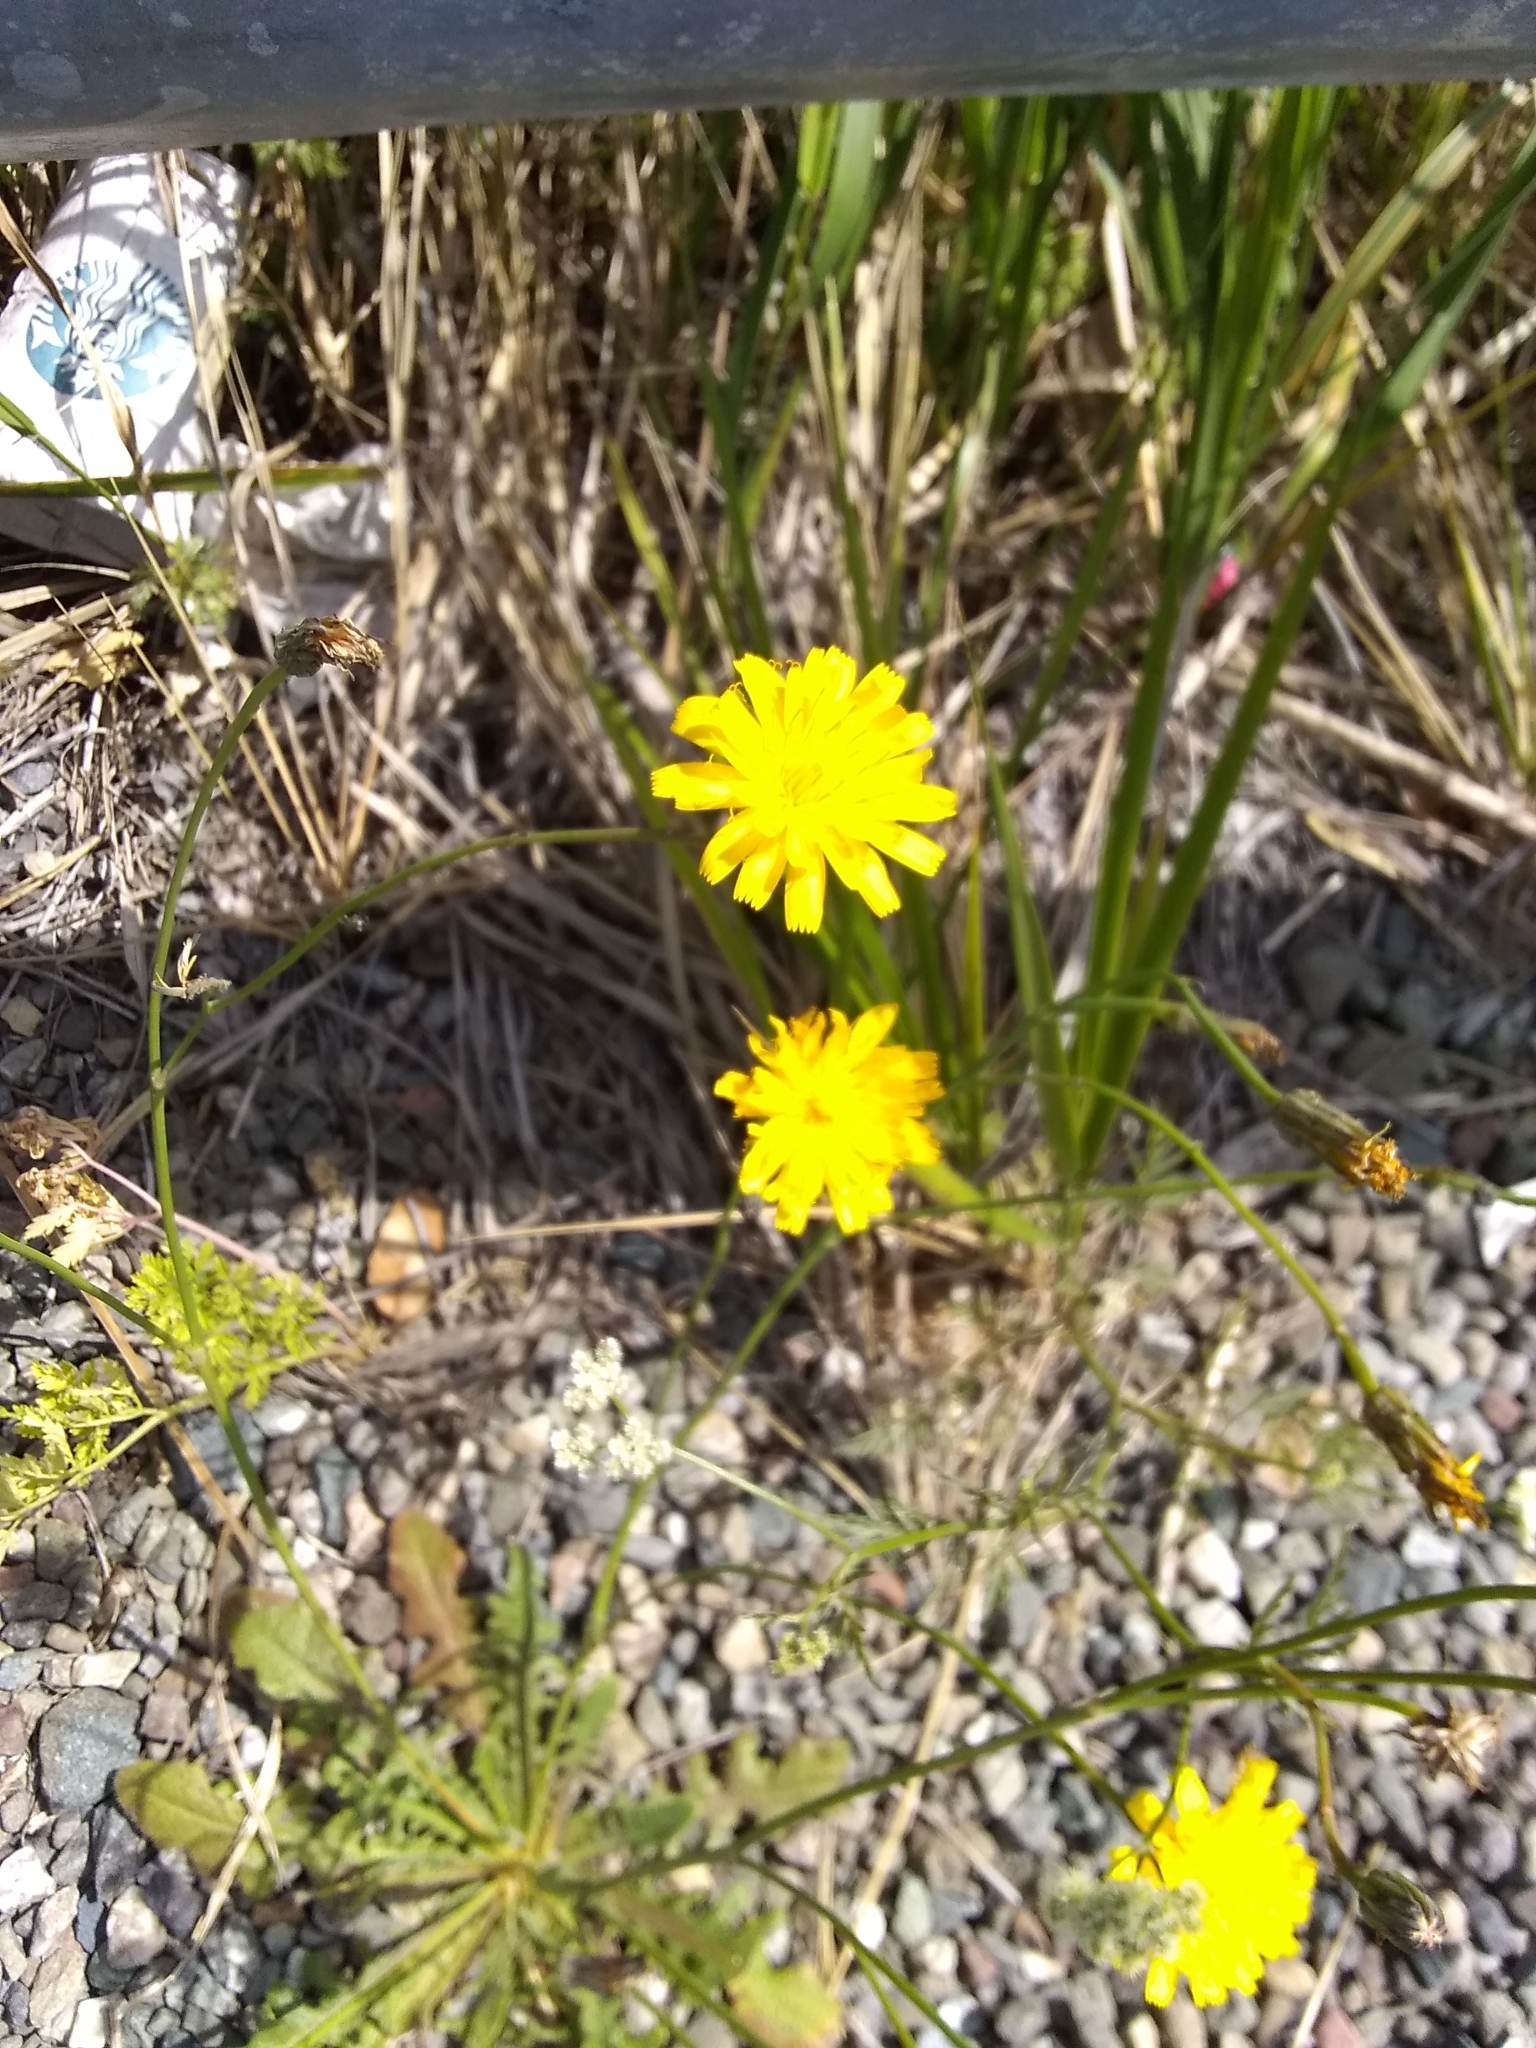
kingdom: Plantae
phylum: Tracheophyta
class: Magnoliopsida
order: Asterales
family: Asteraceae
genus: Hypochaeris
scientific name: Hypochaeris radicata
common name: Flatweed
